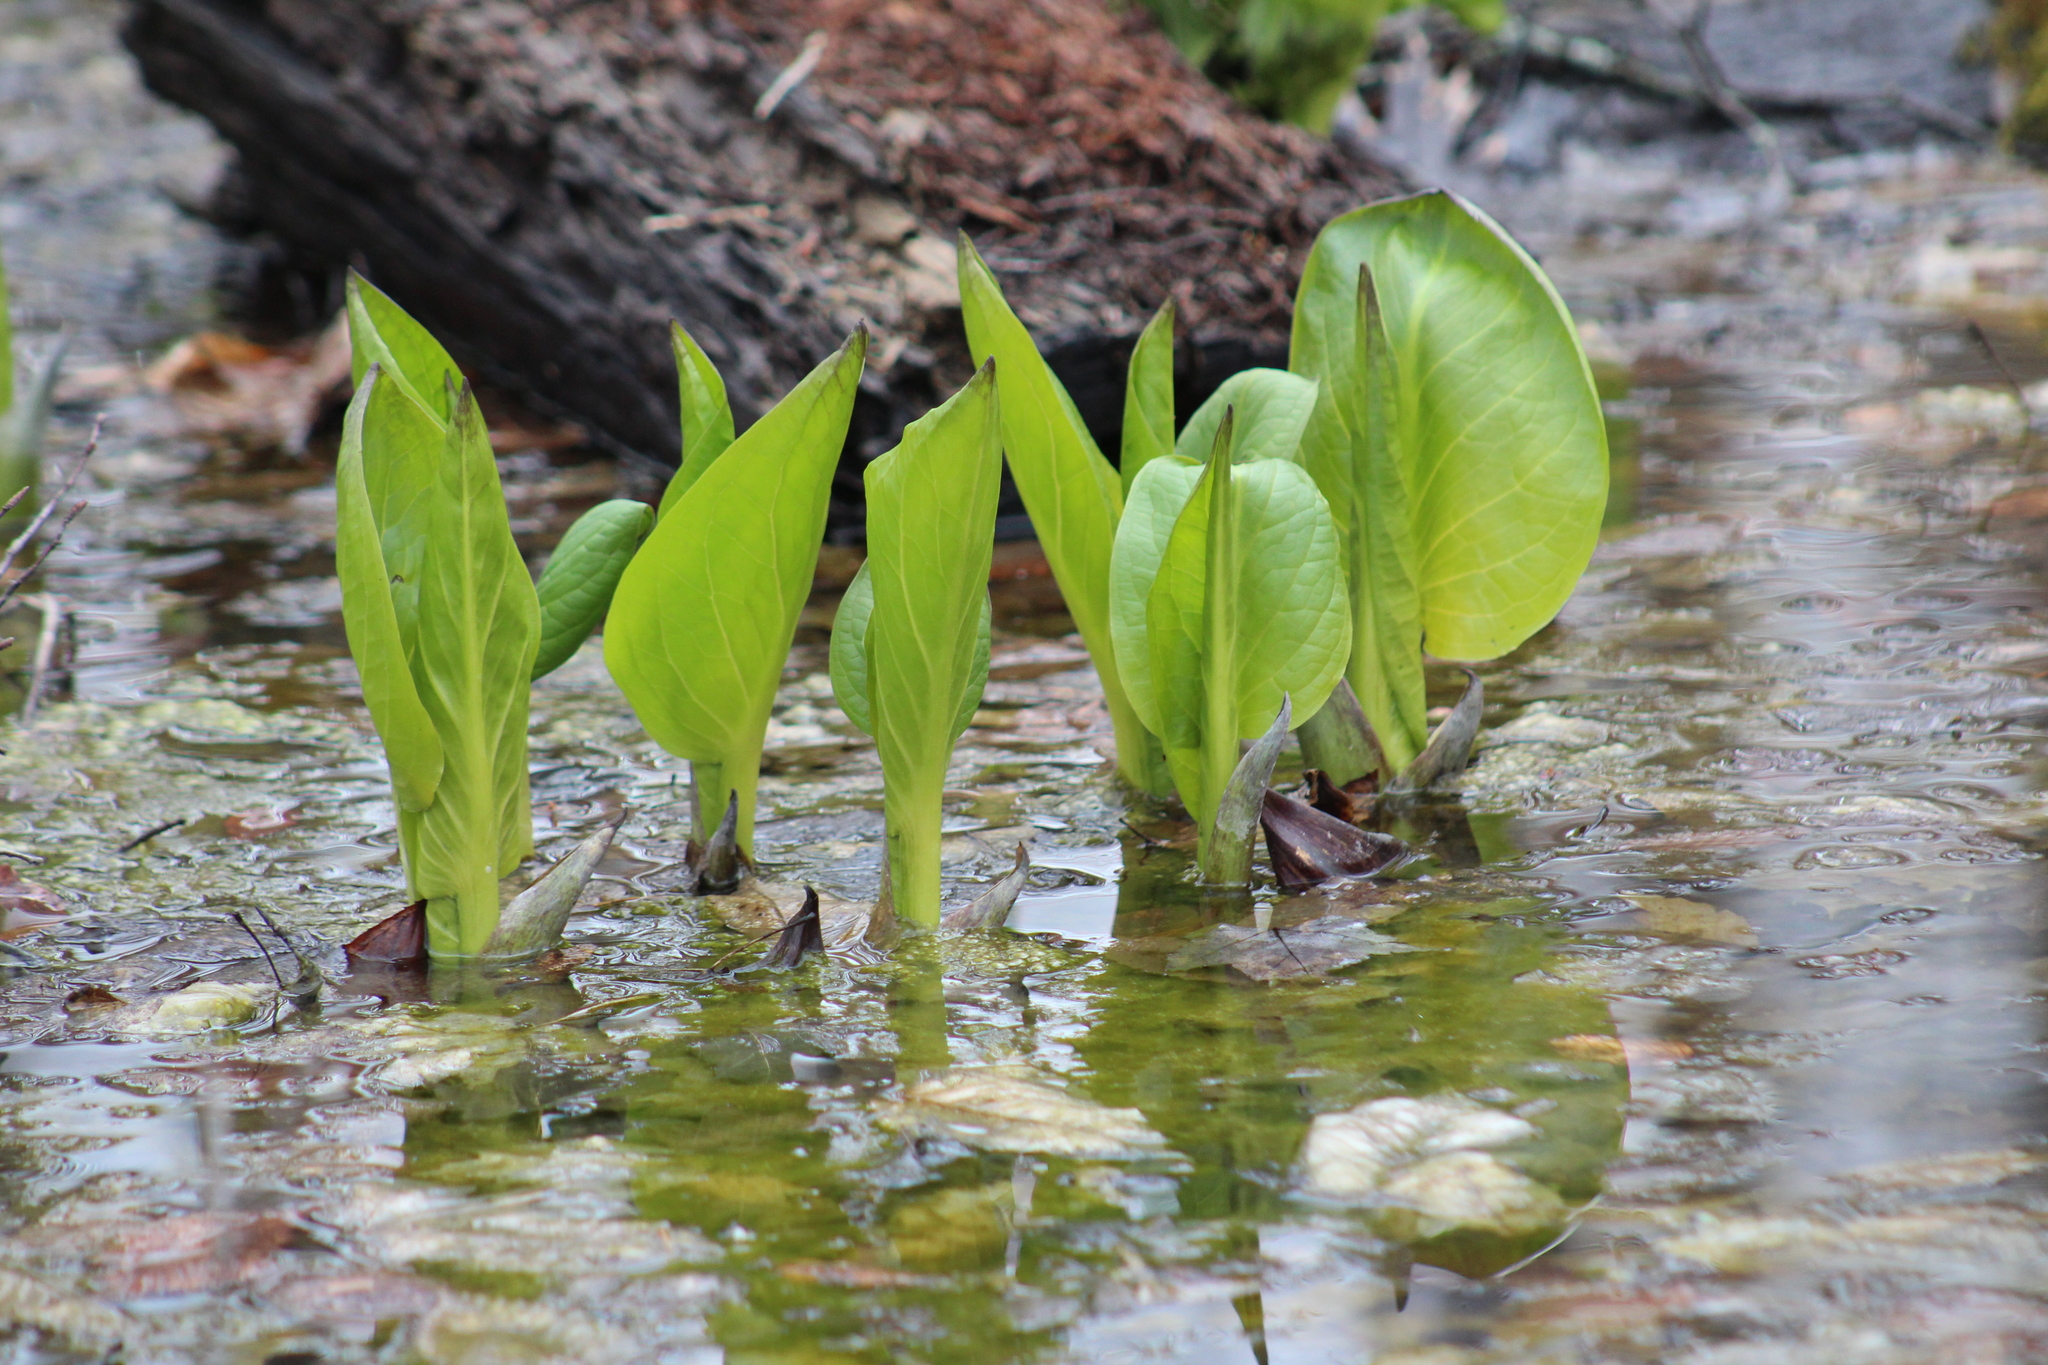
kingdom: Plantae
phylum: Tracheophyta
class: Liliopsida
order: Alismatales
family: Araceae
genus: Symplocarpus
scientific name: Symplocarpus foetidus
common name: Eastern skunk cabbage
